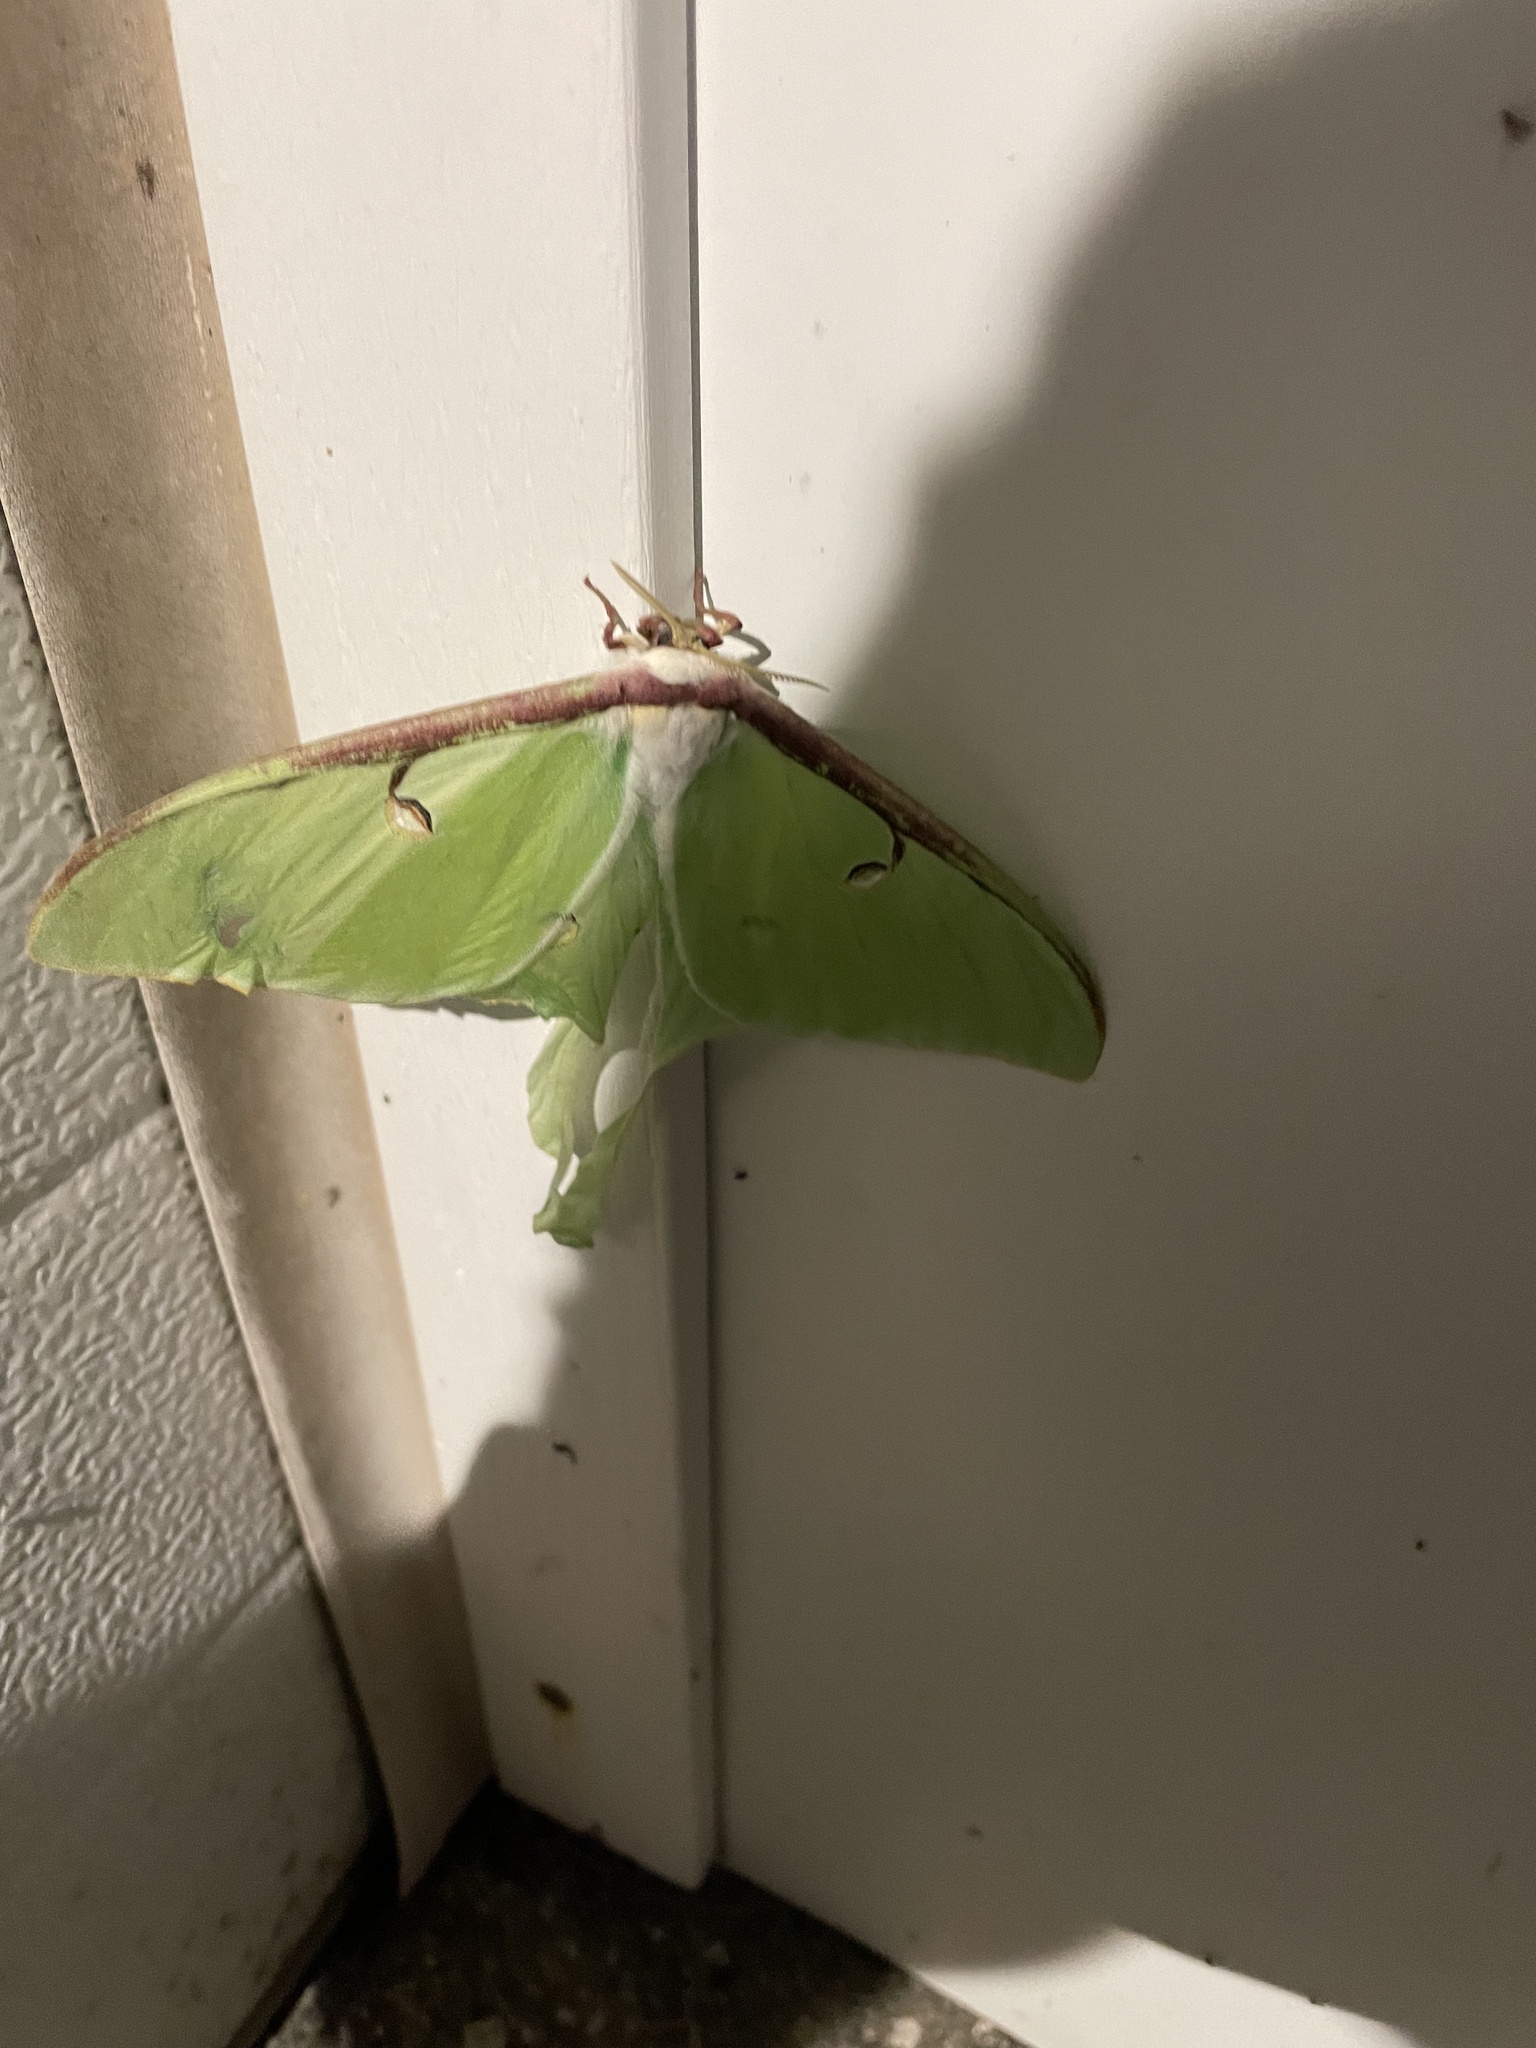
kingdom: Animalia
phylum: Arthropoda
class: Insecta
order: Lepidoptera
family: Saturniidae
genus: Actias
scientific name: Actias luna
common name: Luna moth
